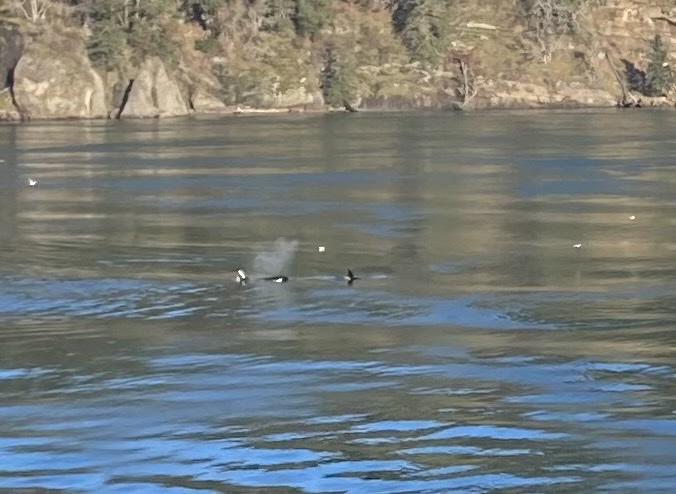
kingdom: Animalia
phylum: Chordata
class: Mammalia
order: Cetacea
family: Delphinidae
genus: Orcinus
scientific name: Orcinus orca
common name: Killer whale
